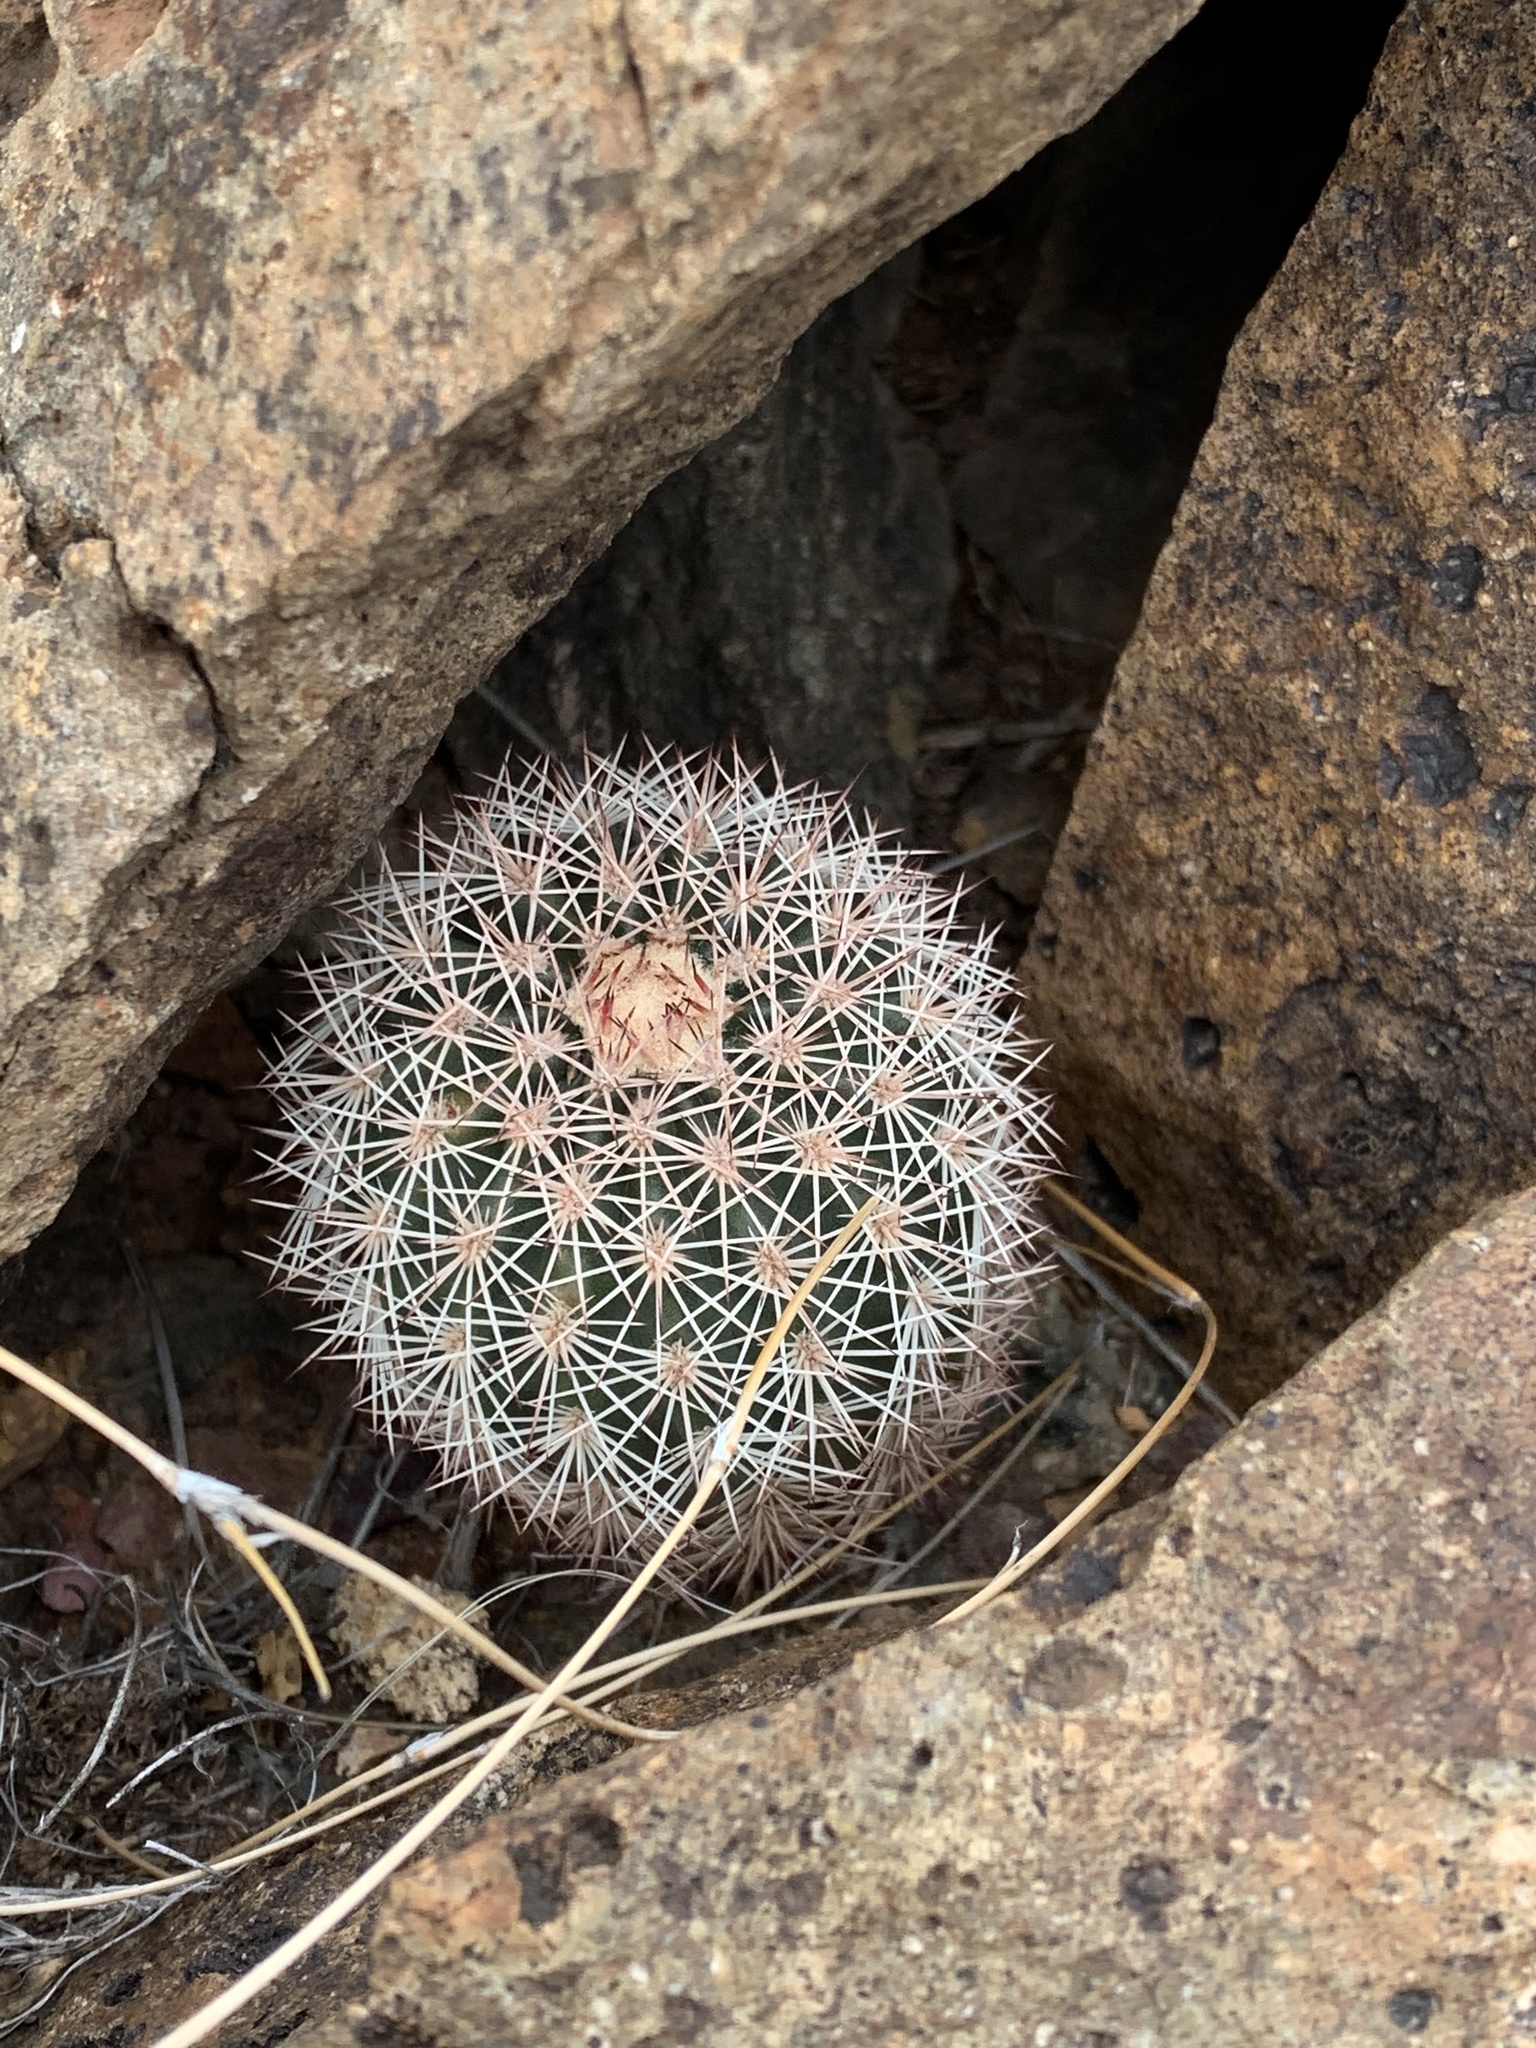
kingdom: Plantae
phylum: Tracheophyta
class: Magnoliopsida
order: Caryophyllales
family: Cactaceae
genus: Echinocereus
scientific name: Echinocereus dasyacanthus
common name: Spiny hedgehog cactus
